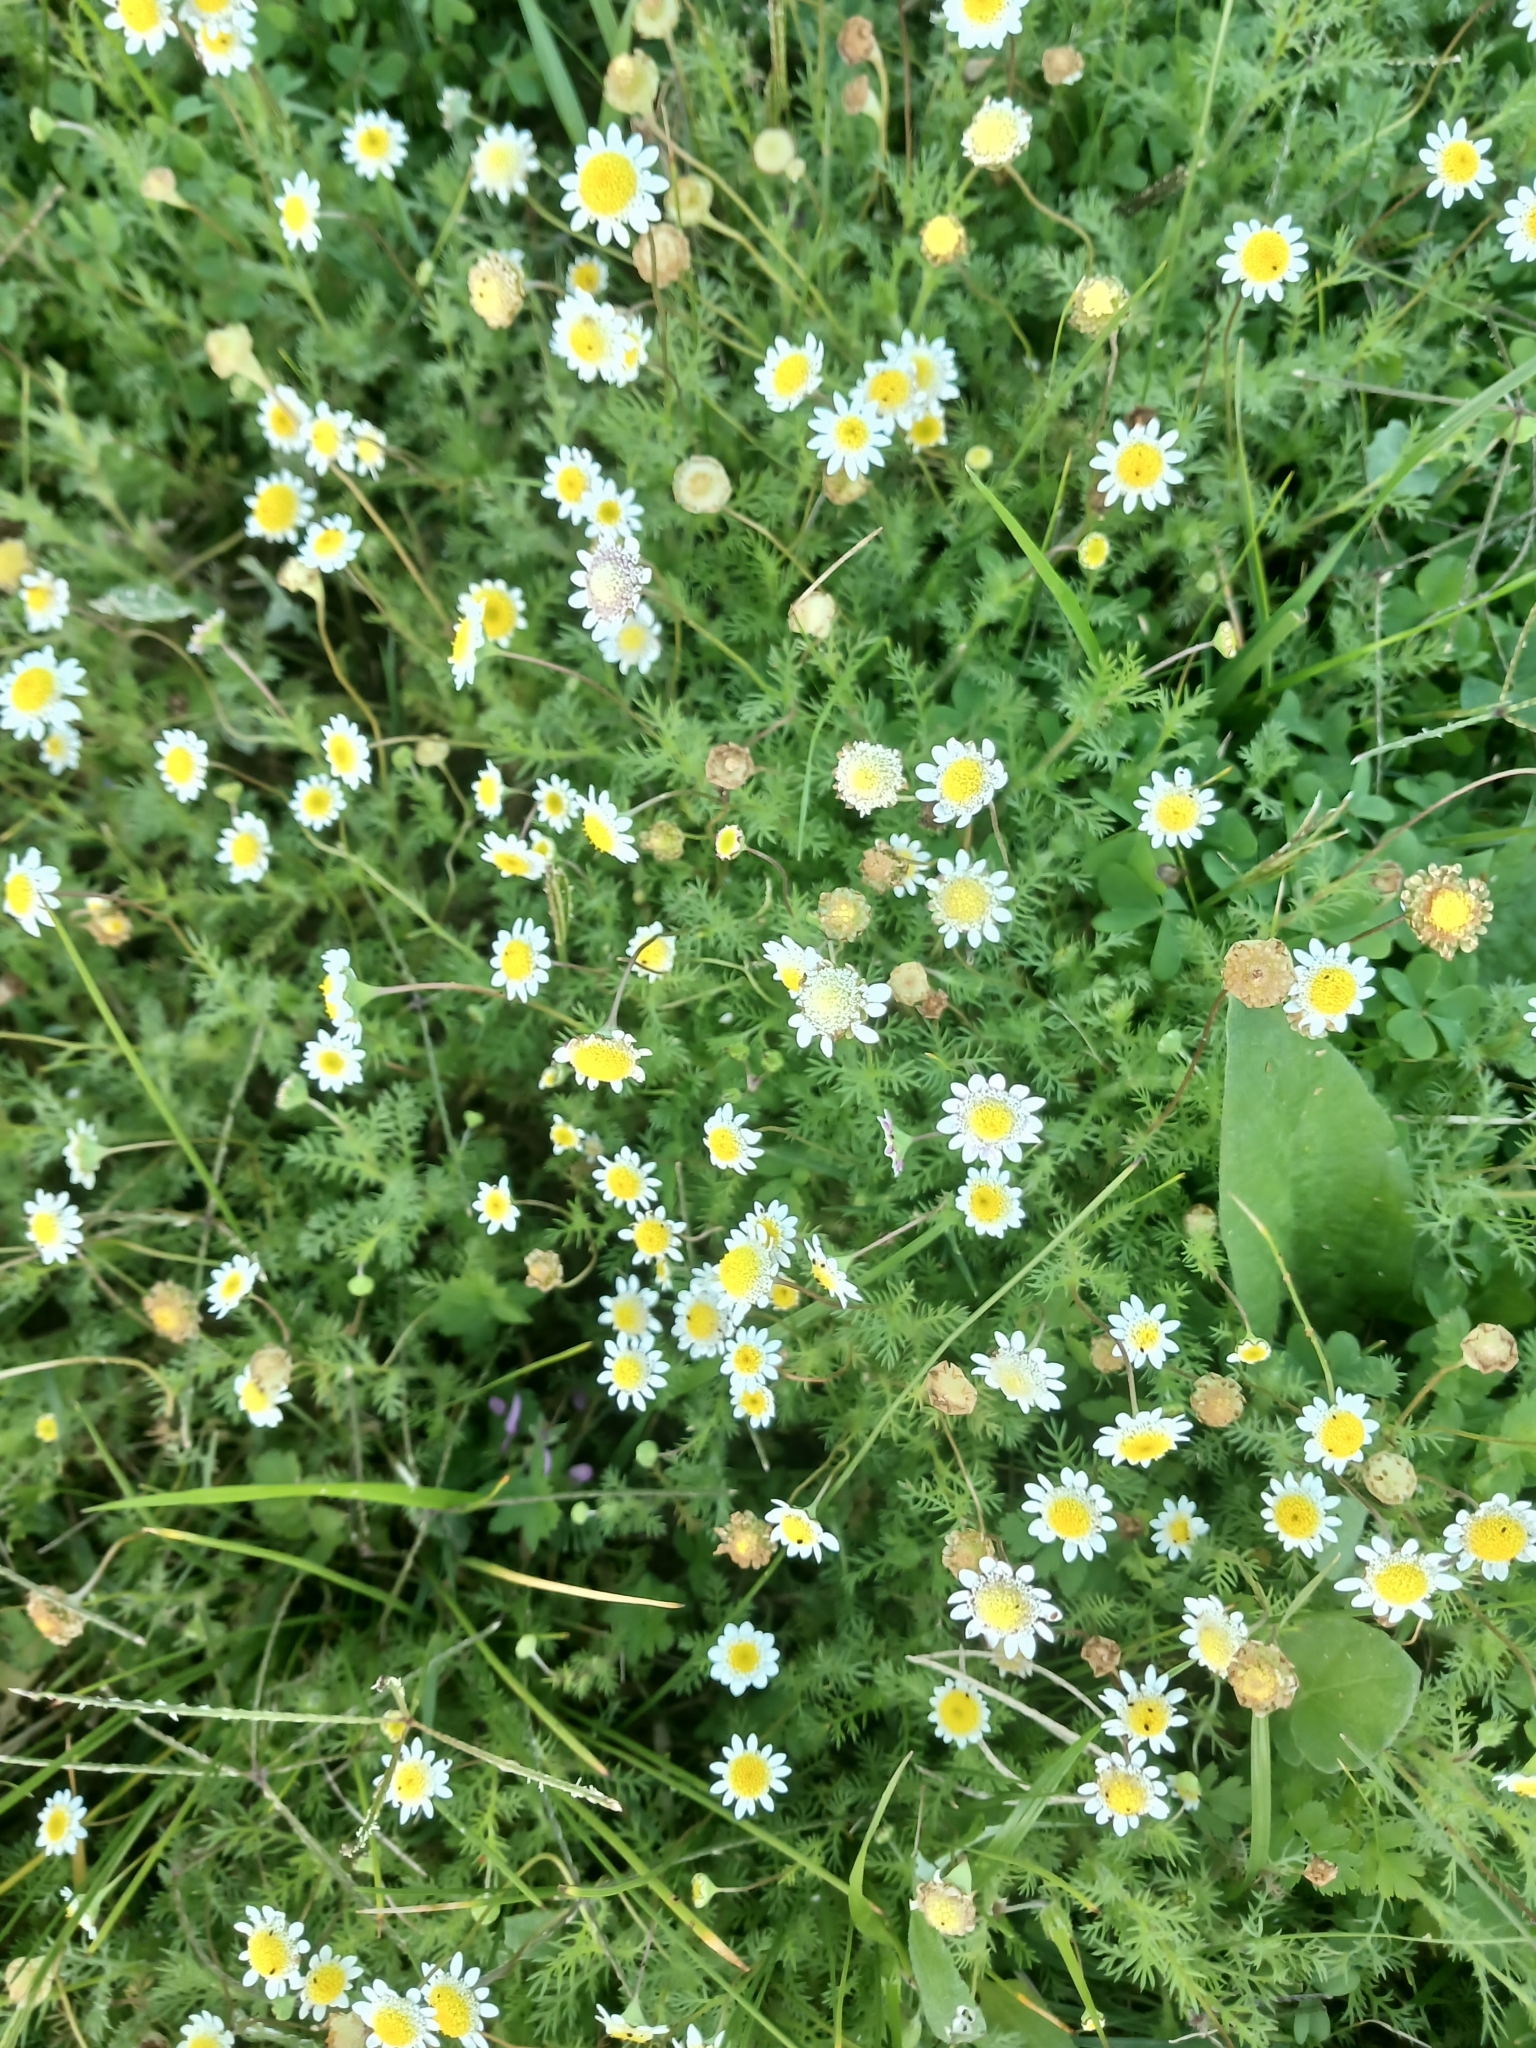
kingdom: Plantae
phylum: Tracheophyta
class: Magnoliopsida
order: Asterales
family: Asteraceae
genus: Cotula
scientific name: Cotula turbinata
